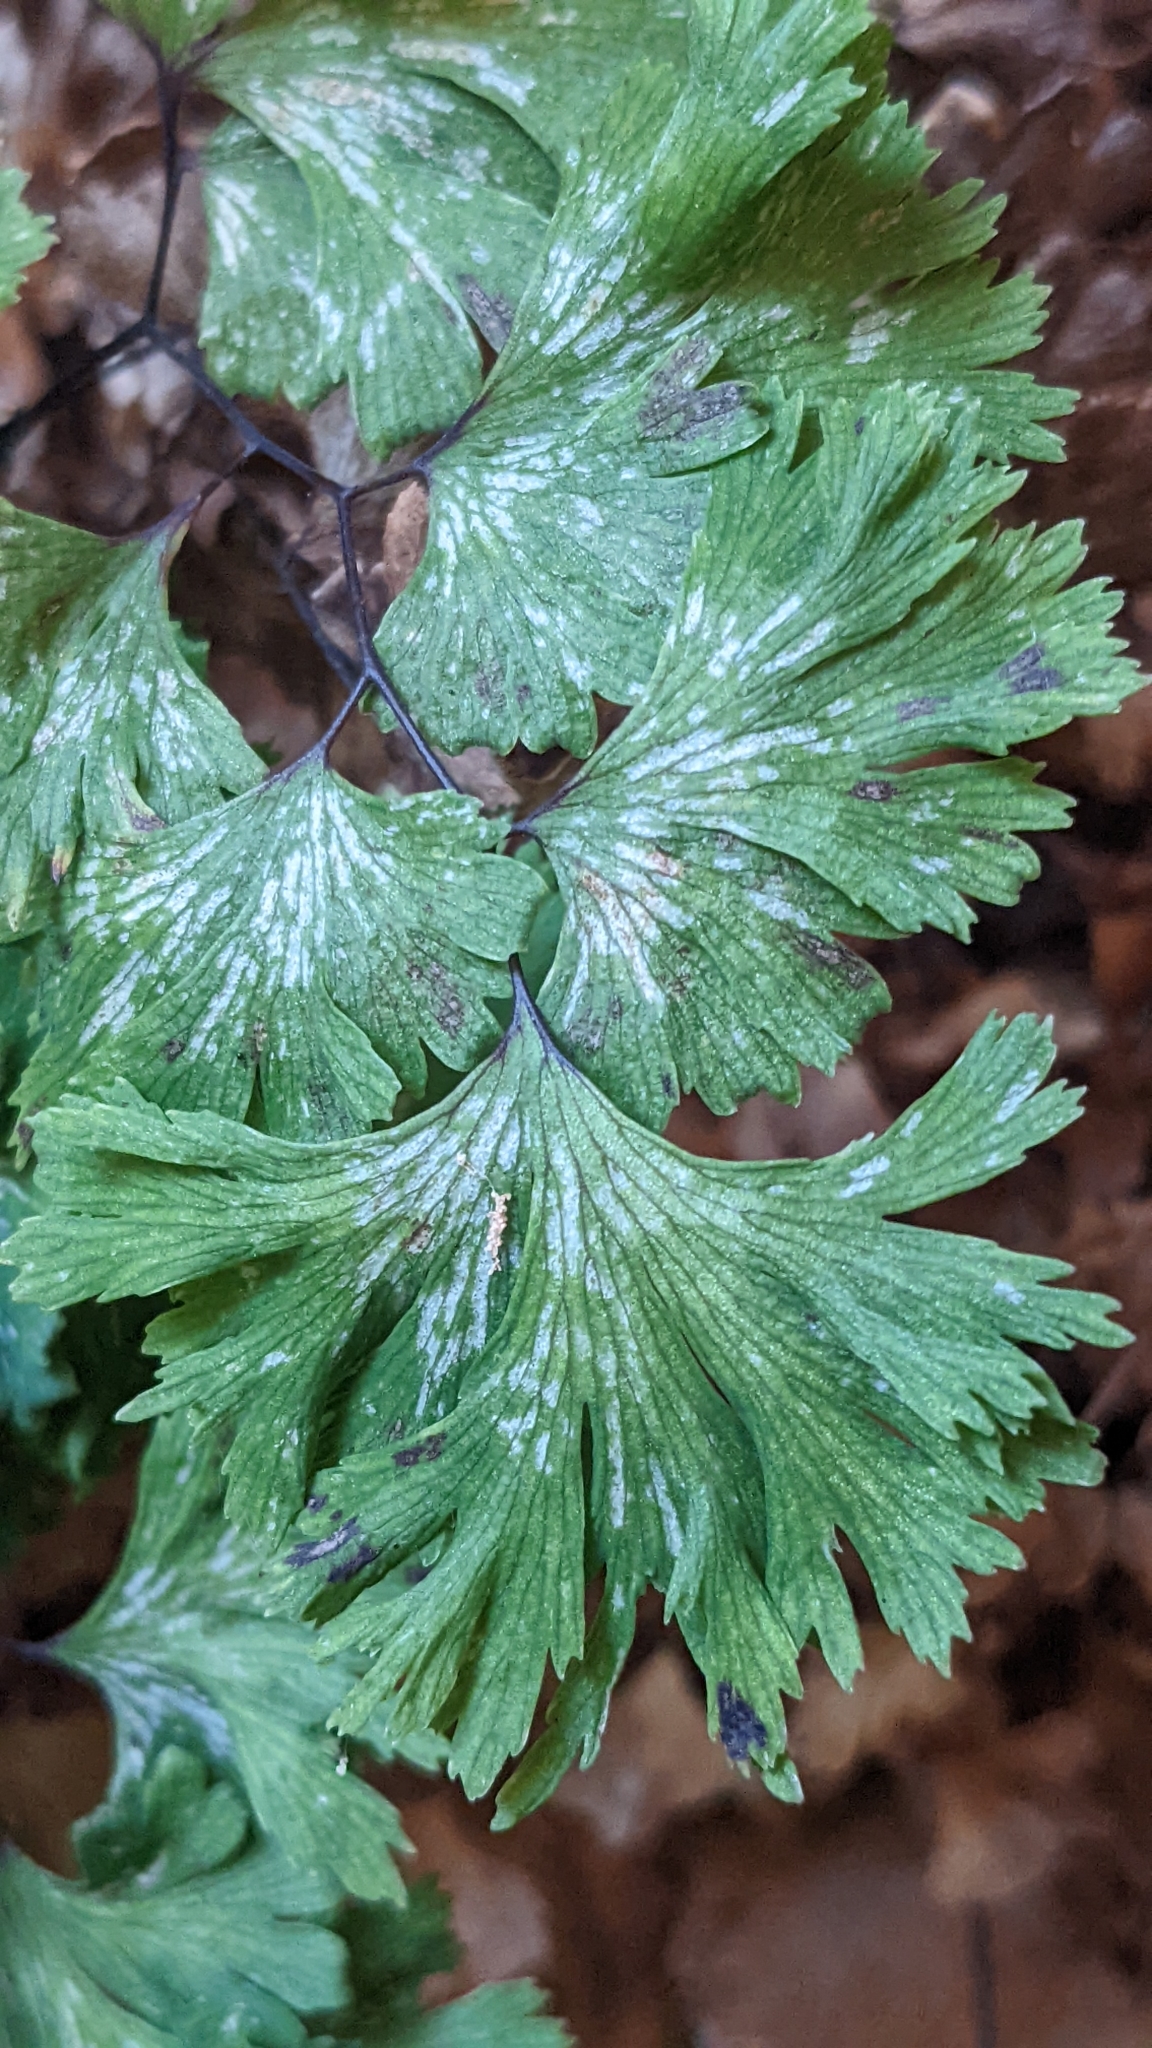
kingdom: Plantae
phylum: Tracheophyta
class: Polypodiopsida
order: Polypodiales
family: Pteridaceae
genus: Adiantum
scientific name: Adiantum capillus-veneris
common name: Maidenhair fern
